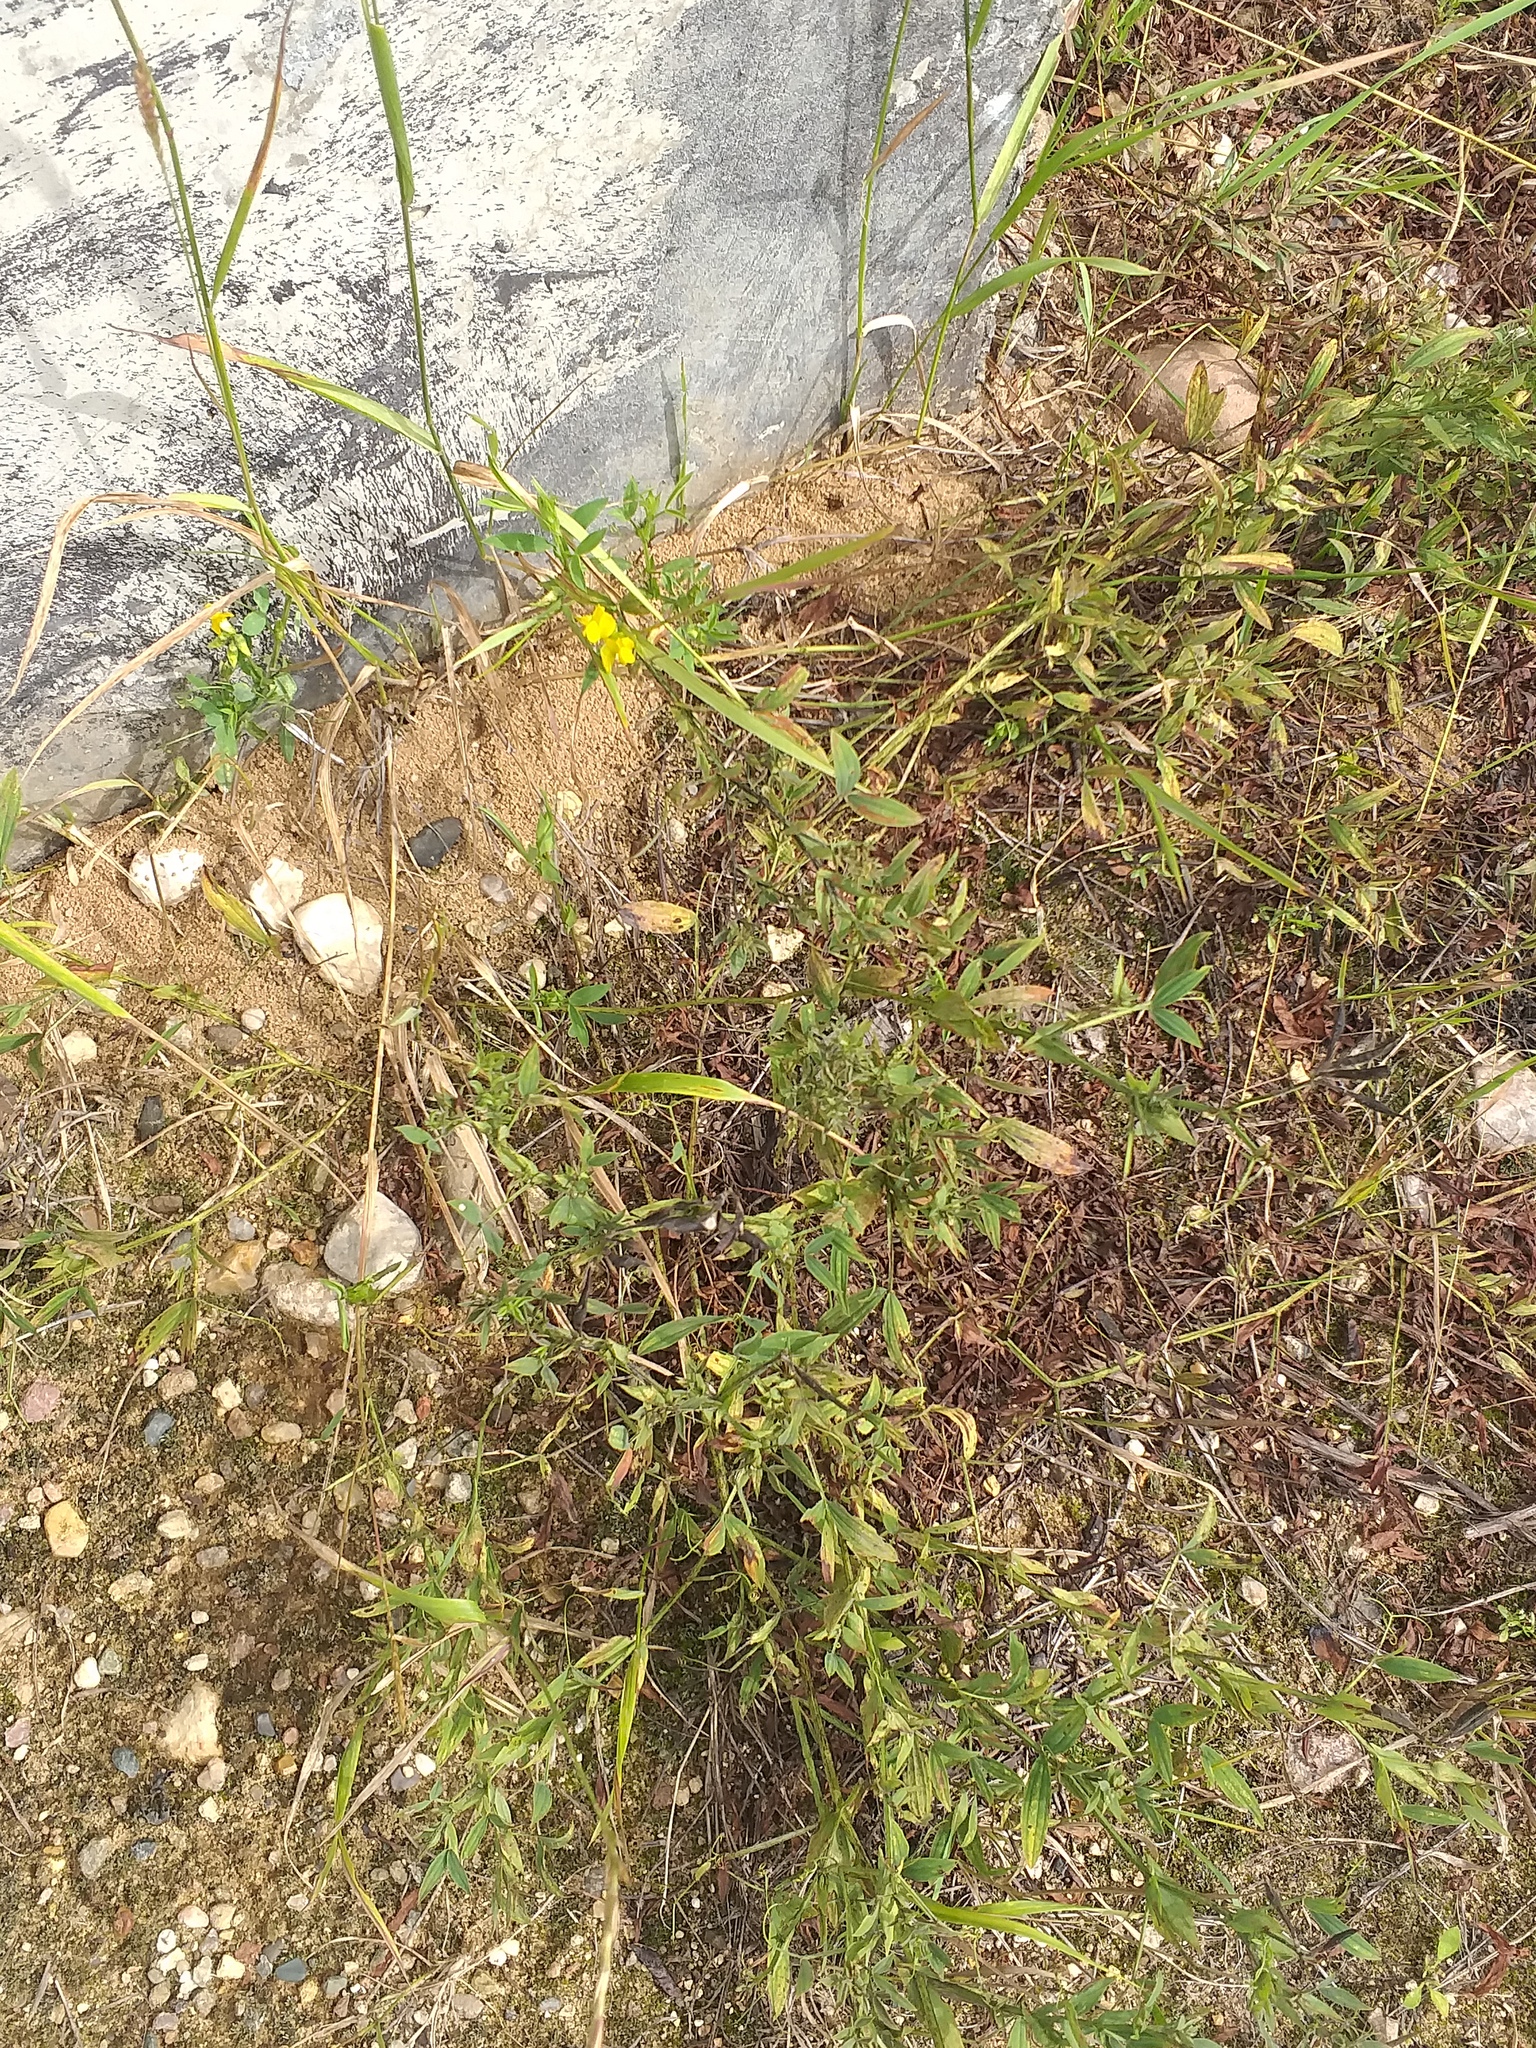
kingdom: Plantae
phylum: Tracheophyta
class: Magnoliopsida
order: Fabales
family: Fabaceae
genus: Lathyrus
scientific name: Lathyrus pratensis
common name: Meadow vetchling
